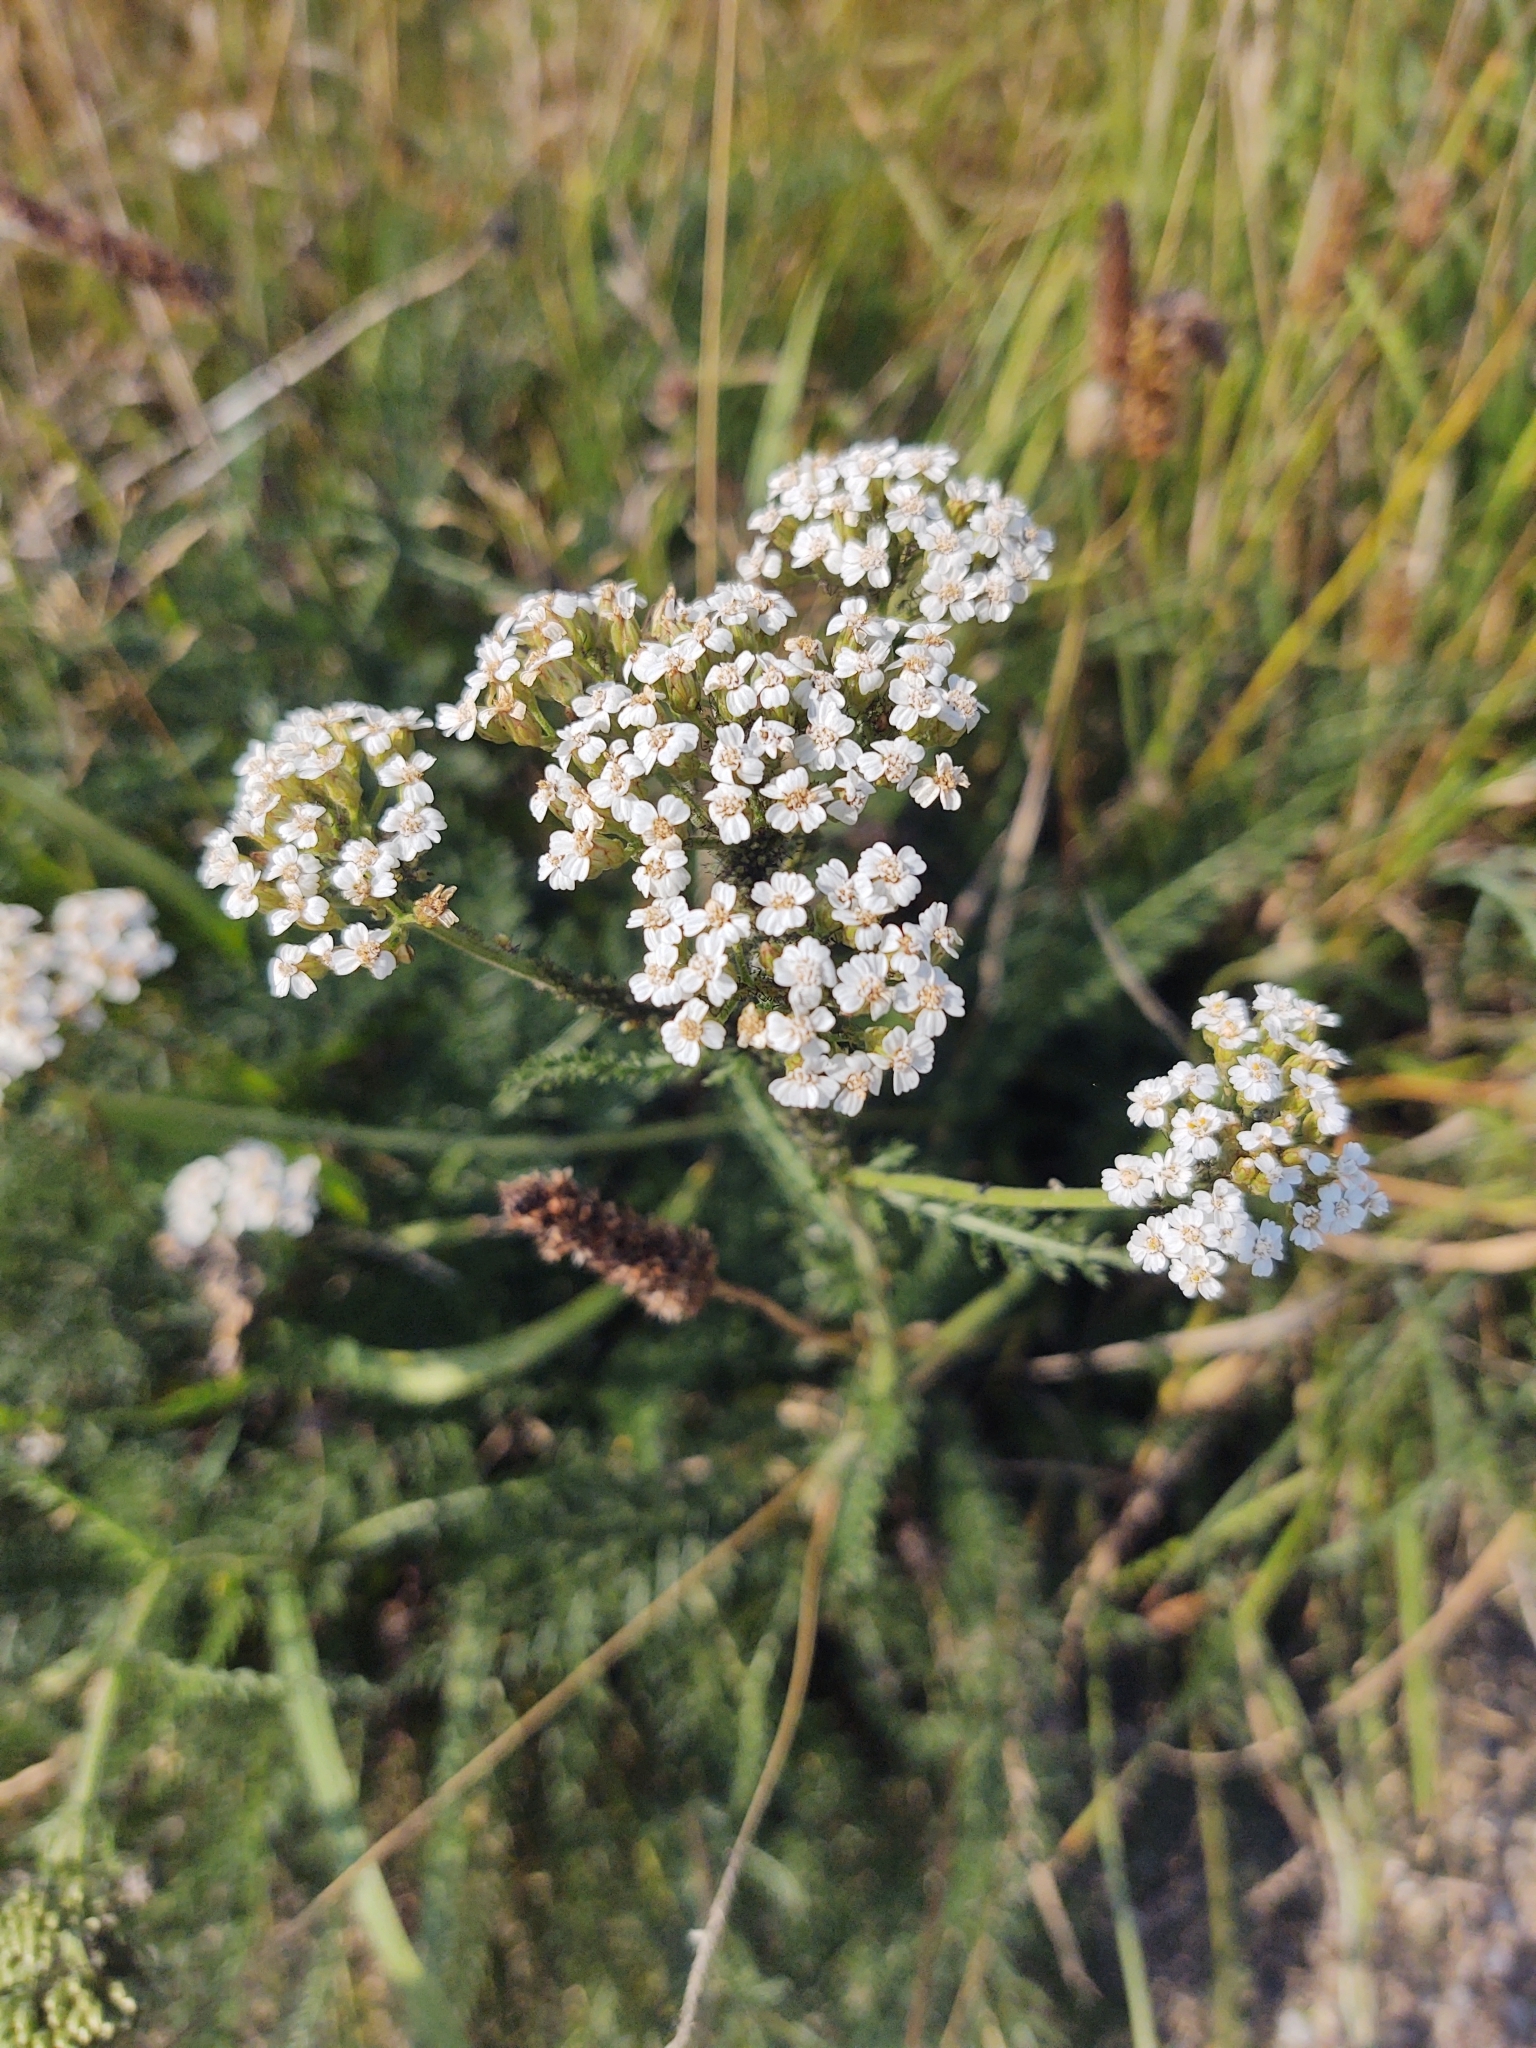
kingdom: Plantae
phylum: Tracheophyta
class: Magnoliopsida
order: Asterales
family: Asteraceae
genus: Achillea
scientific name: Achillea millefolium
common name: Yarrow
